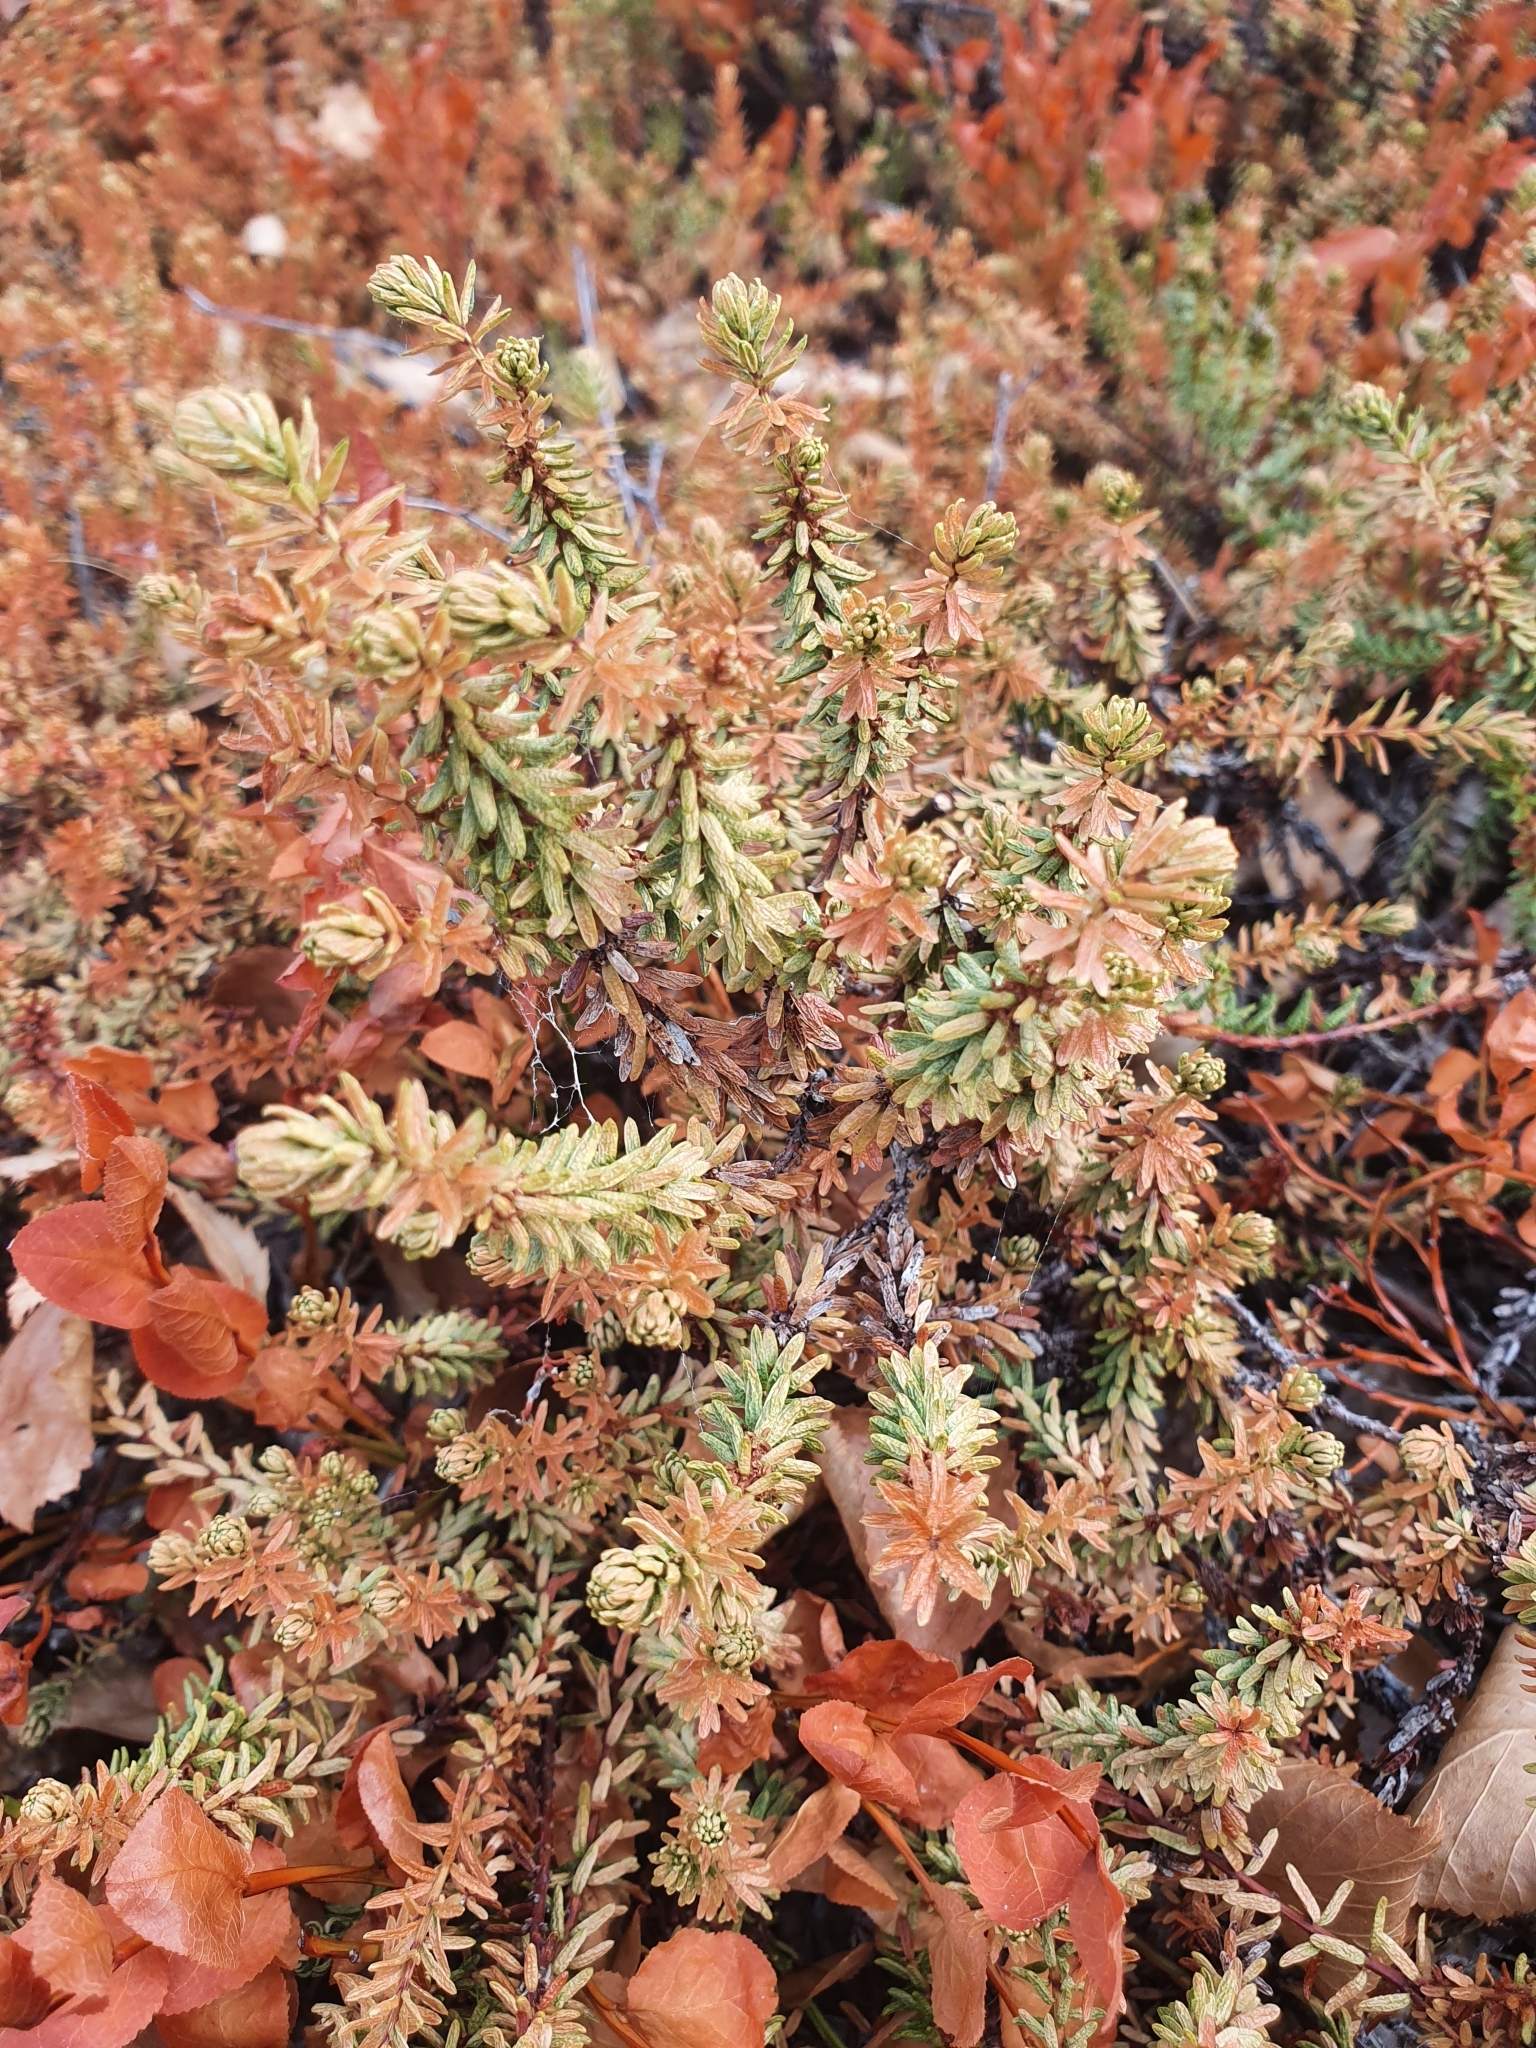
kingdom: Plantae
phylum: Tracheophyta
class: Magnoliopsida
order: Ericales
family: Ericaceae
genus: Empetrum
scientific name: Empetrum nigrum
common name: Black crowberry
